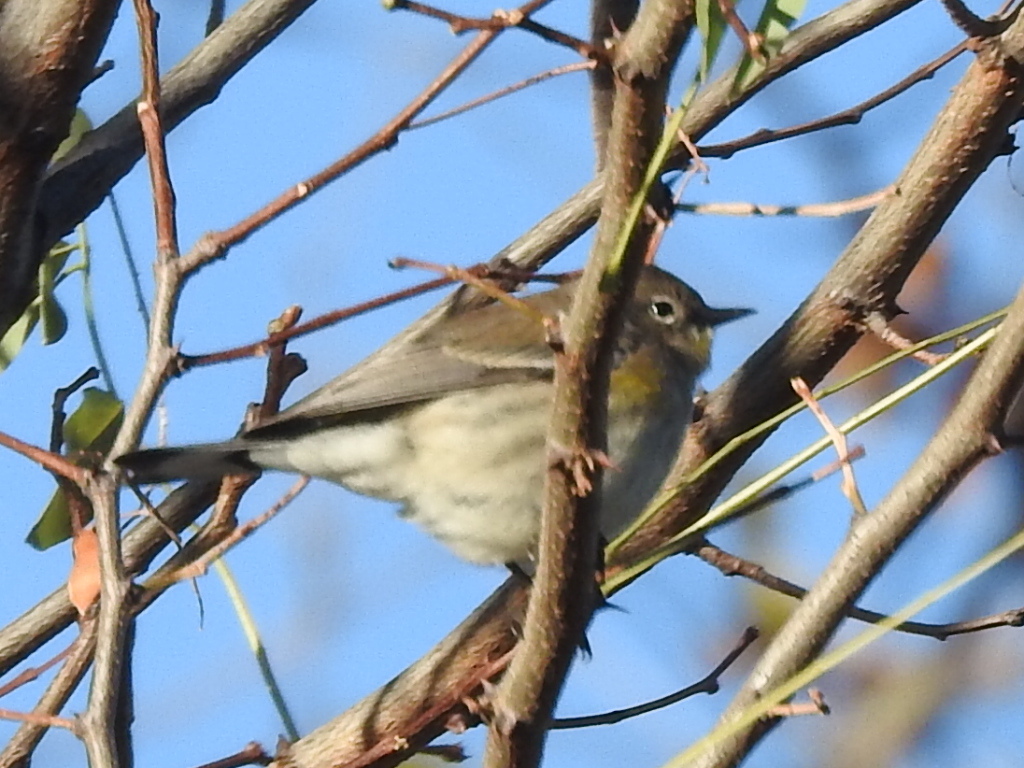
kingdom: Animalia
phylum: Chordata
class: Aves
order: Passeriformes
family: Parulidae
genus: Setophaga
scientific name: Setophaga coronata
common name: Myrtle warbler
